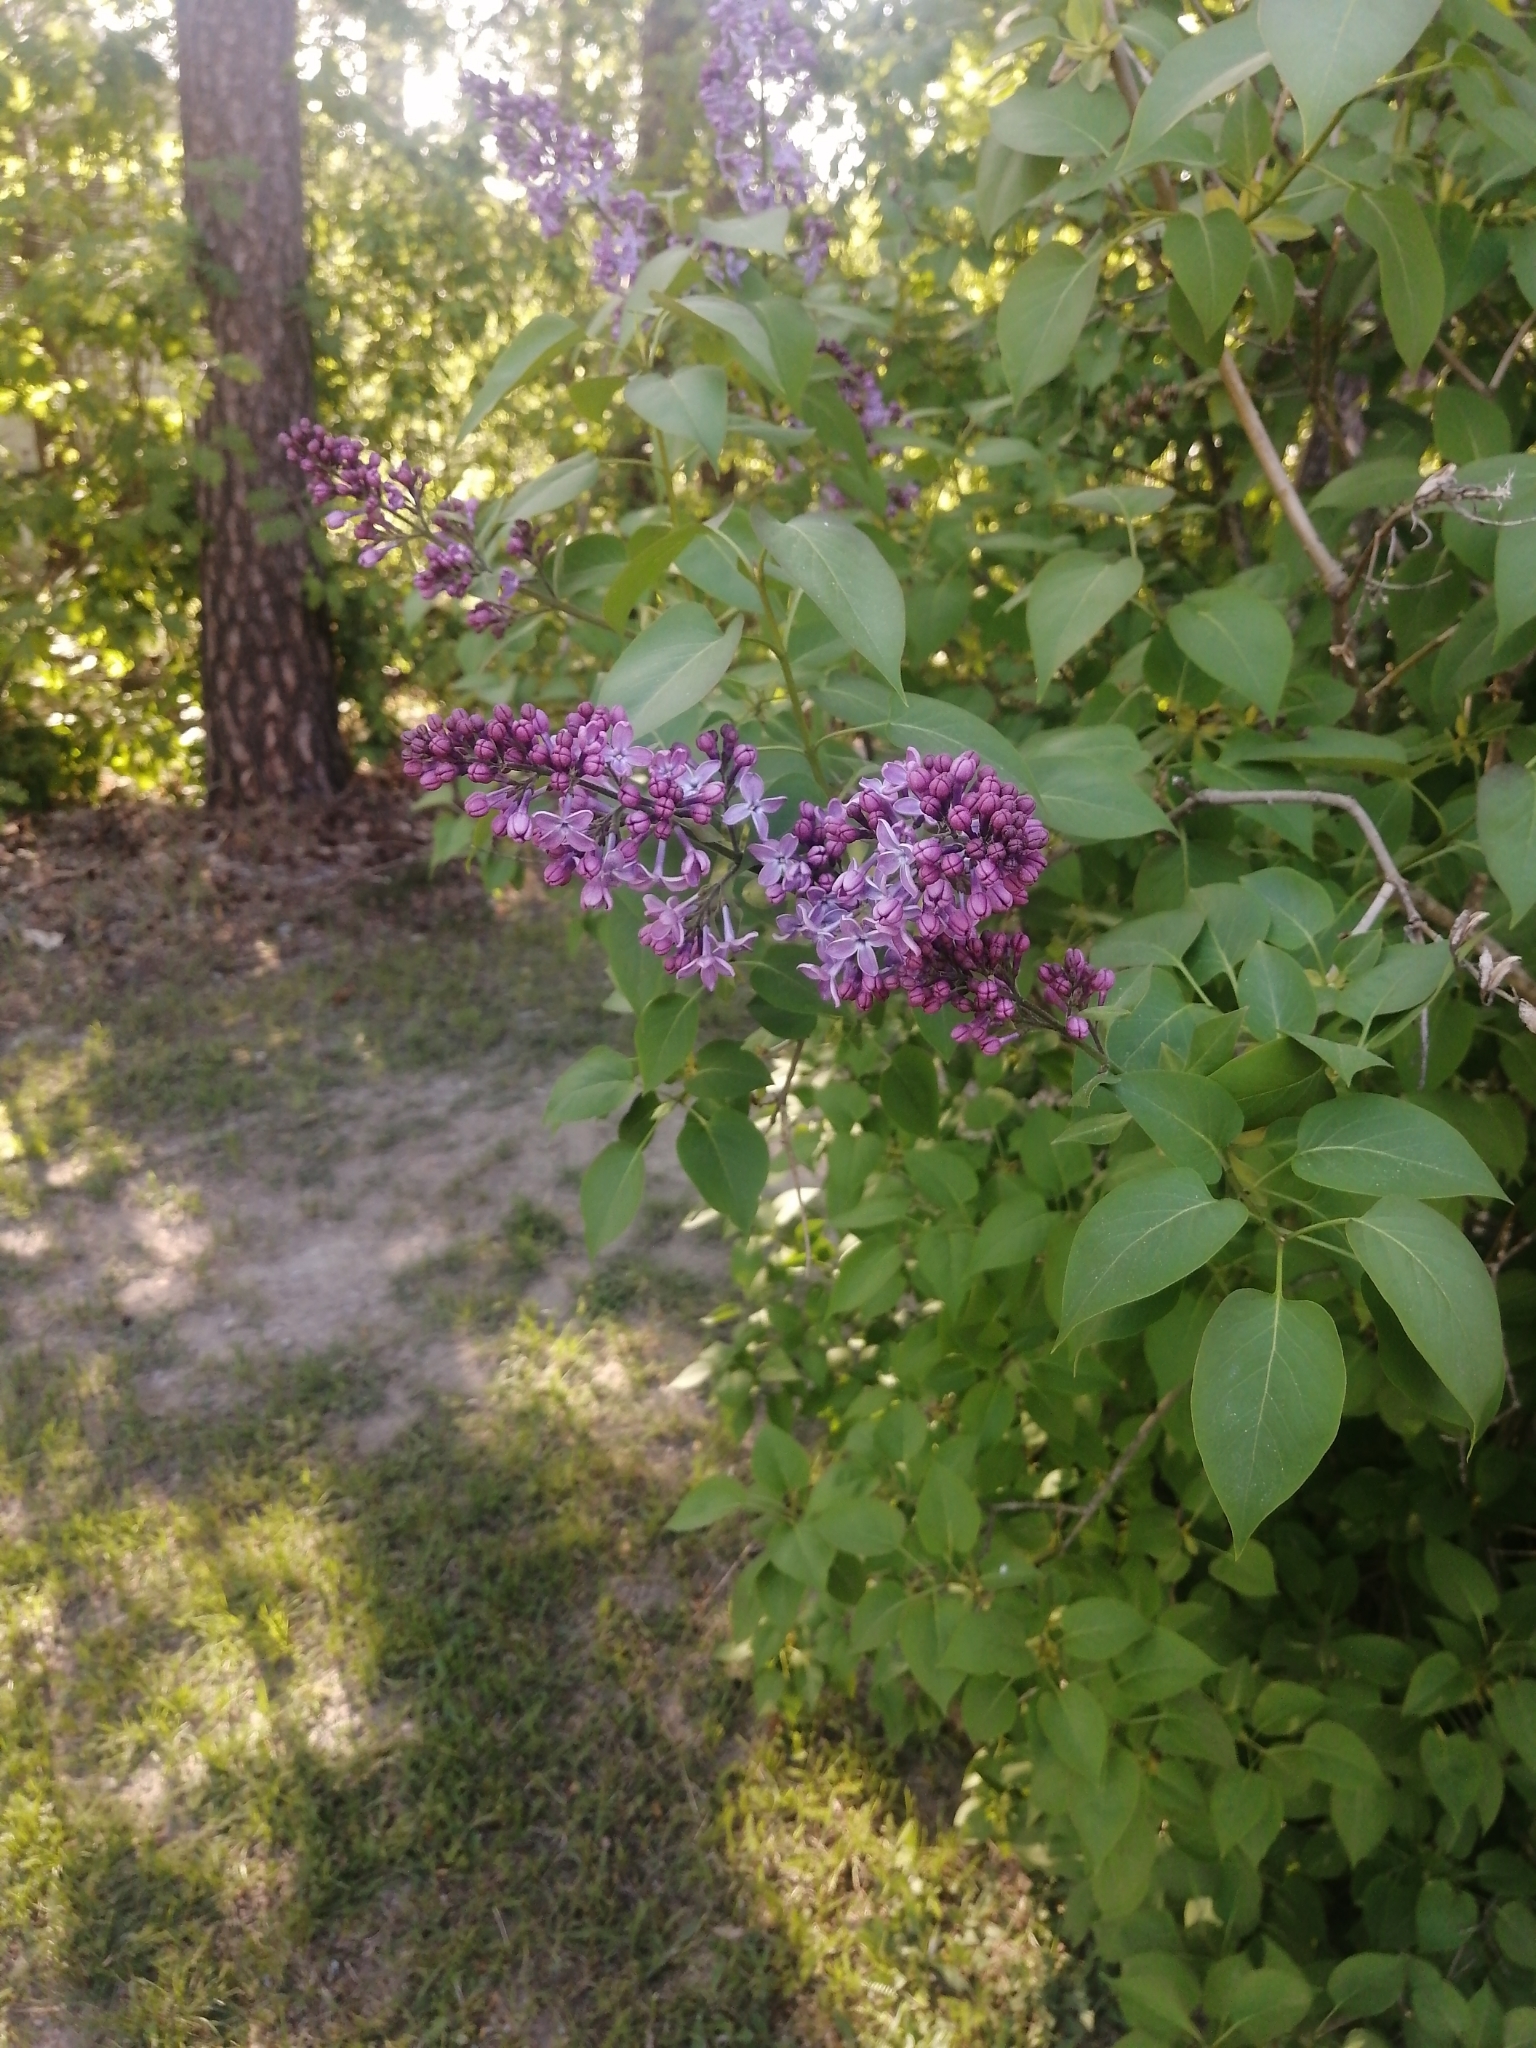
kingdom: Plantae
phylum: Tracheophyta
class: Magnoliopsida
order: Lamiales
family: Oleaceae
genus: Syringa
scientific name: Syringa vulgaris
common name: Common lilac
